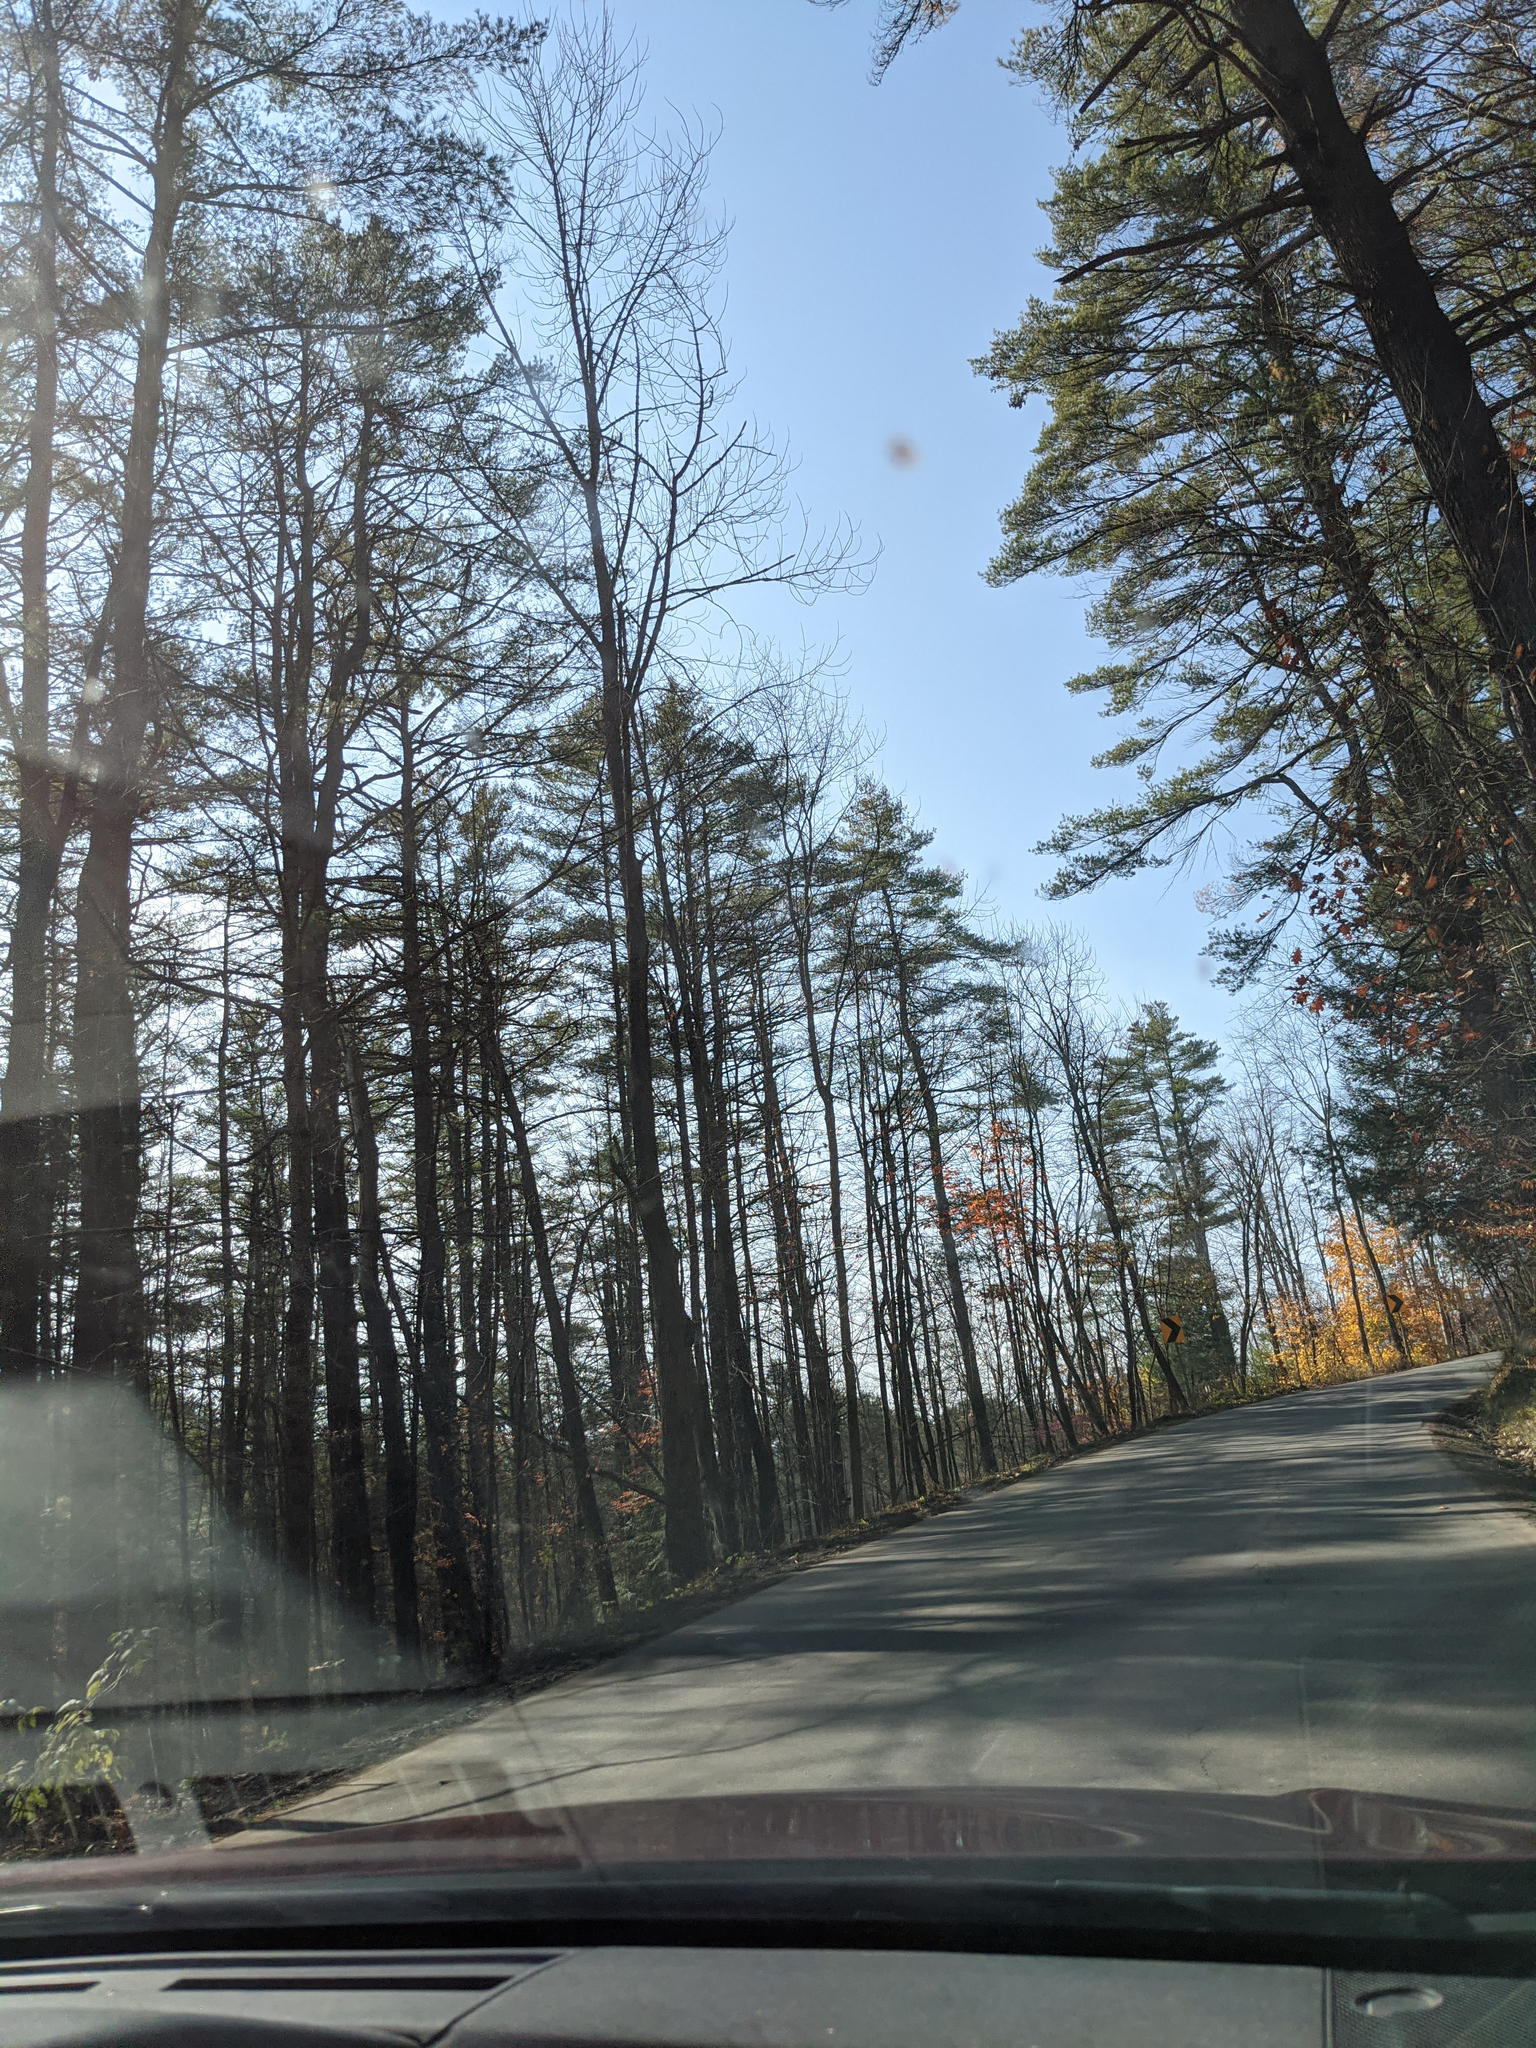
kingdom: Plantae
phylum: Tracheophyta
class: Pinopsida
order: Pinales
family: Pinaceae
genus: Pinus
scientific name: Pinus strobus
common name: Weymouth pine
